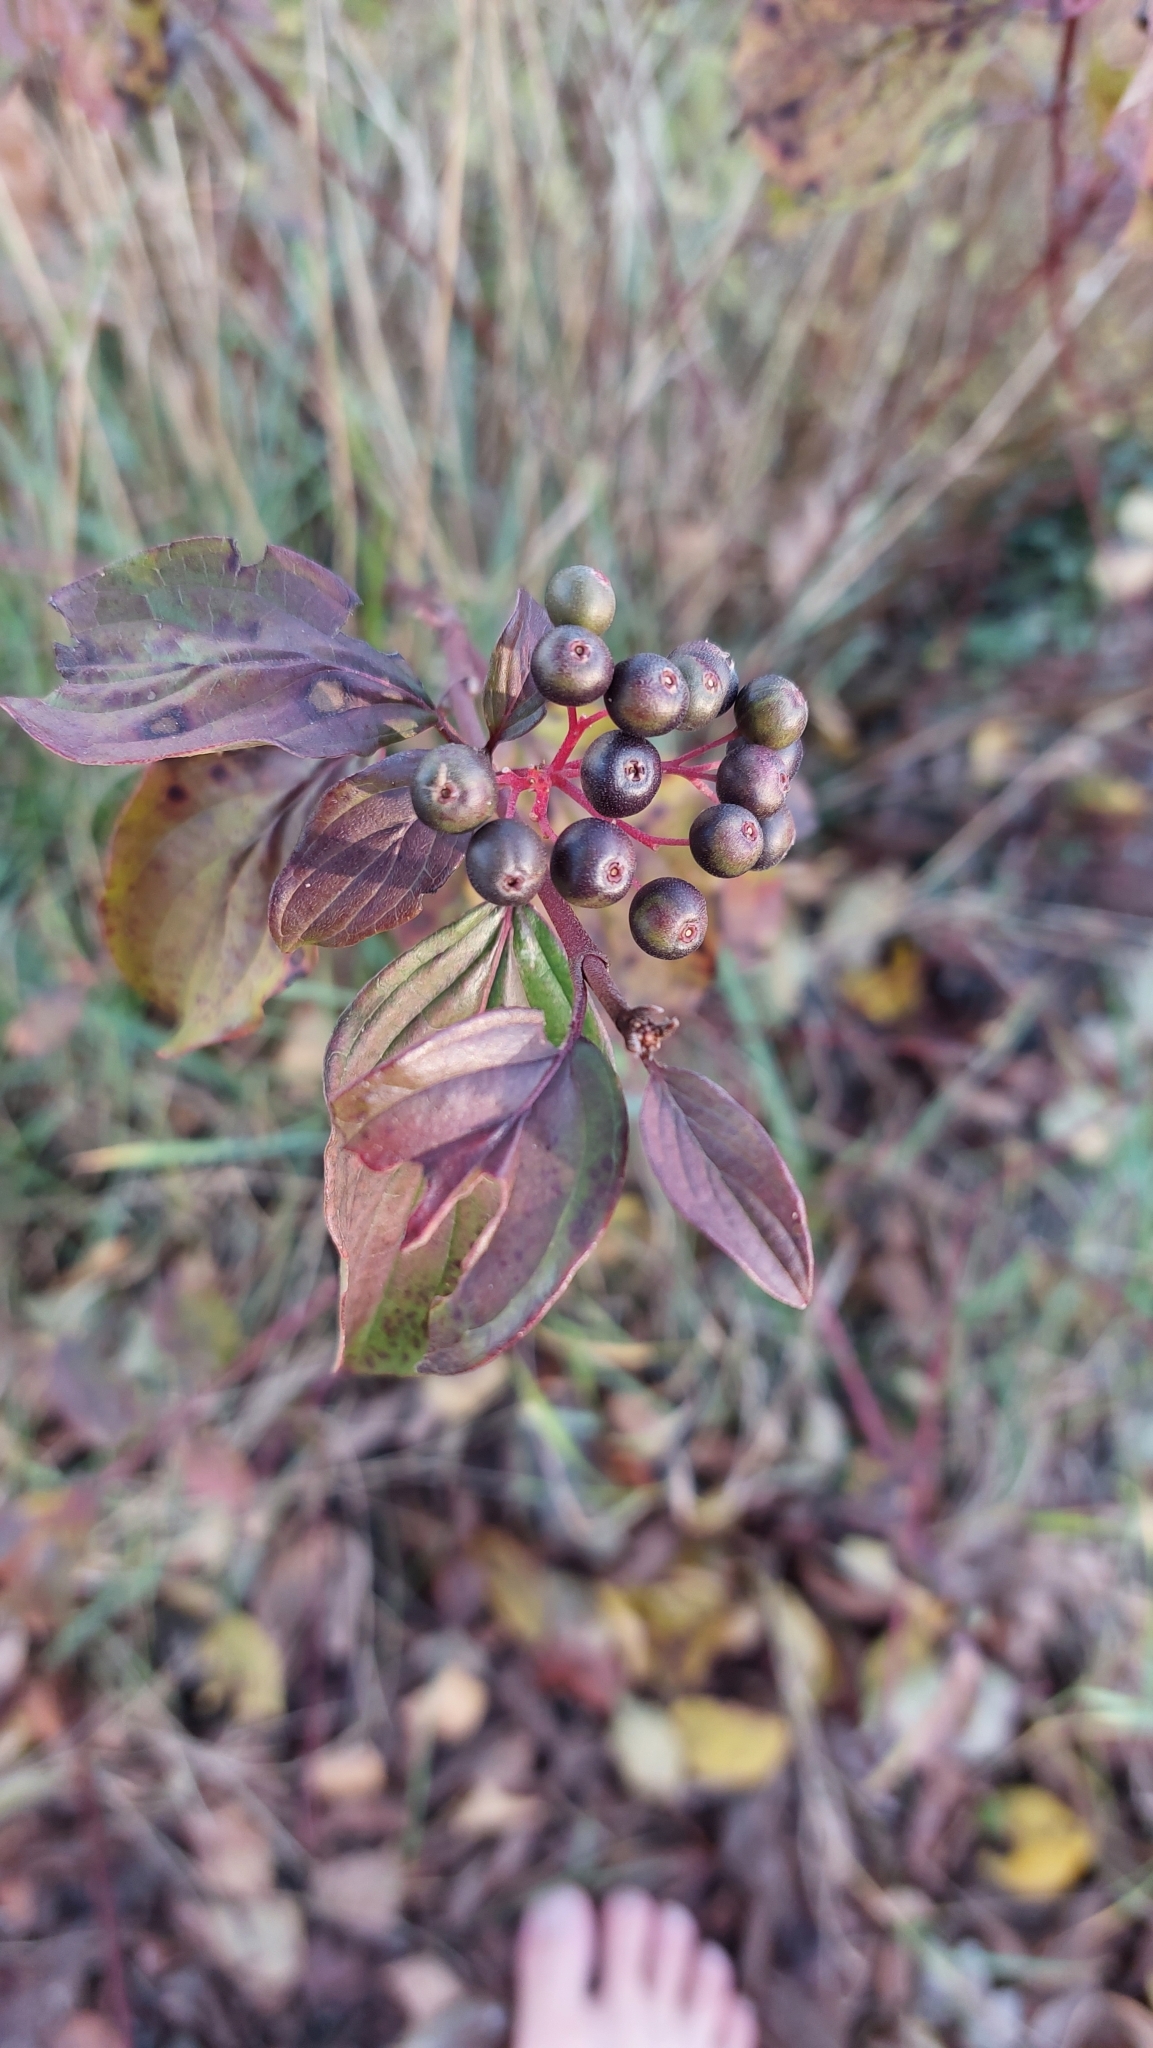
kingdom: Plantae
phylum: Tracheophyta
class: Magnoliopsida
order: Cornales
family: Cornaceae
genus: Cornus
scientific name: Cornus sanguinea
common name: Dogwood
